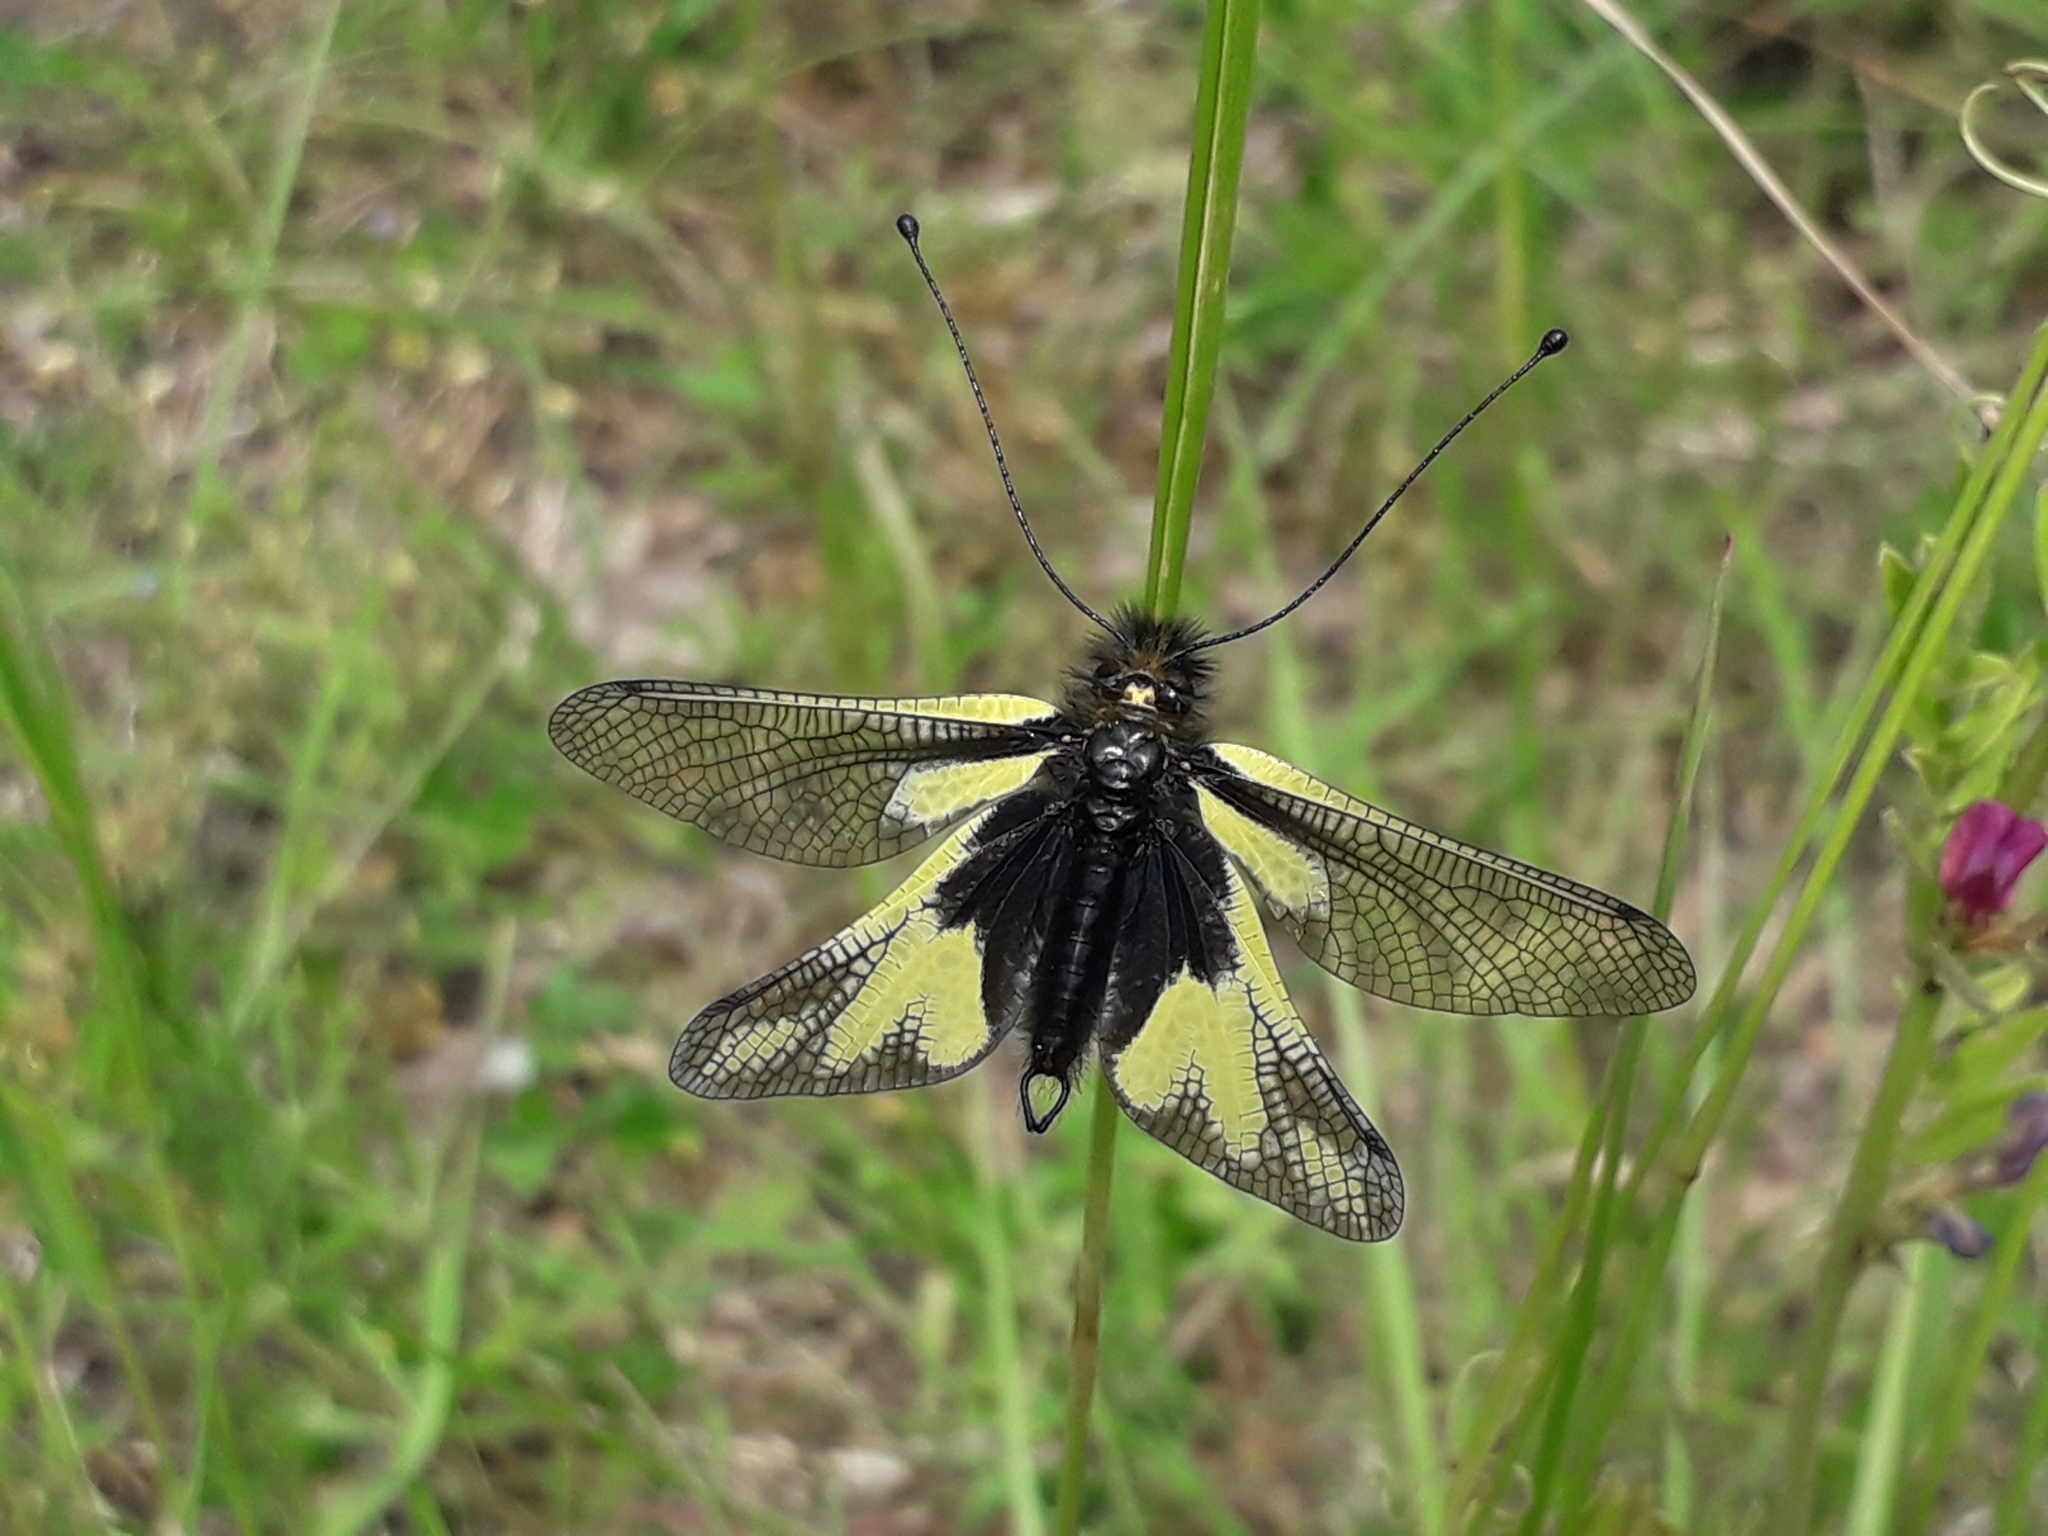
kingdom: Animalia
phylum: Arthropoda
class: Insecta
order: Neuroptera
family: Ascalaphidae
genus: Libelloides
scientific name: Libelloides coccajus
